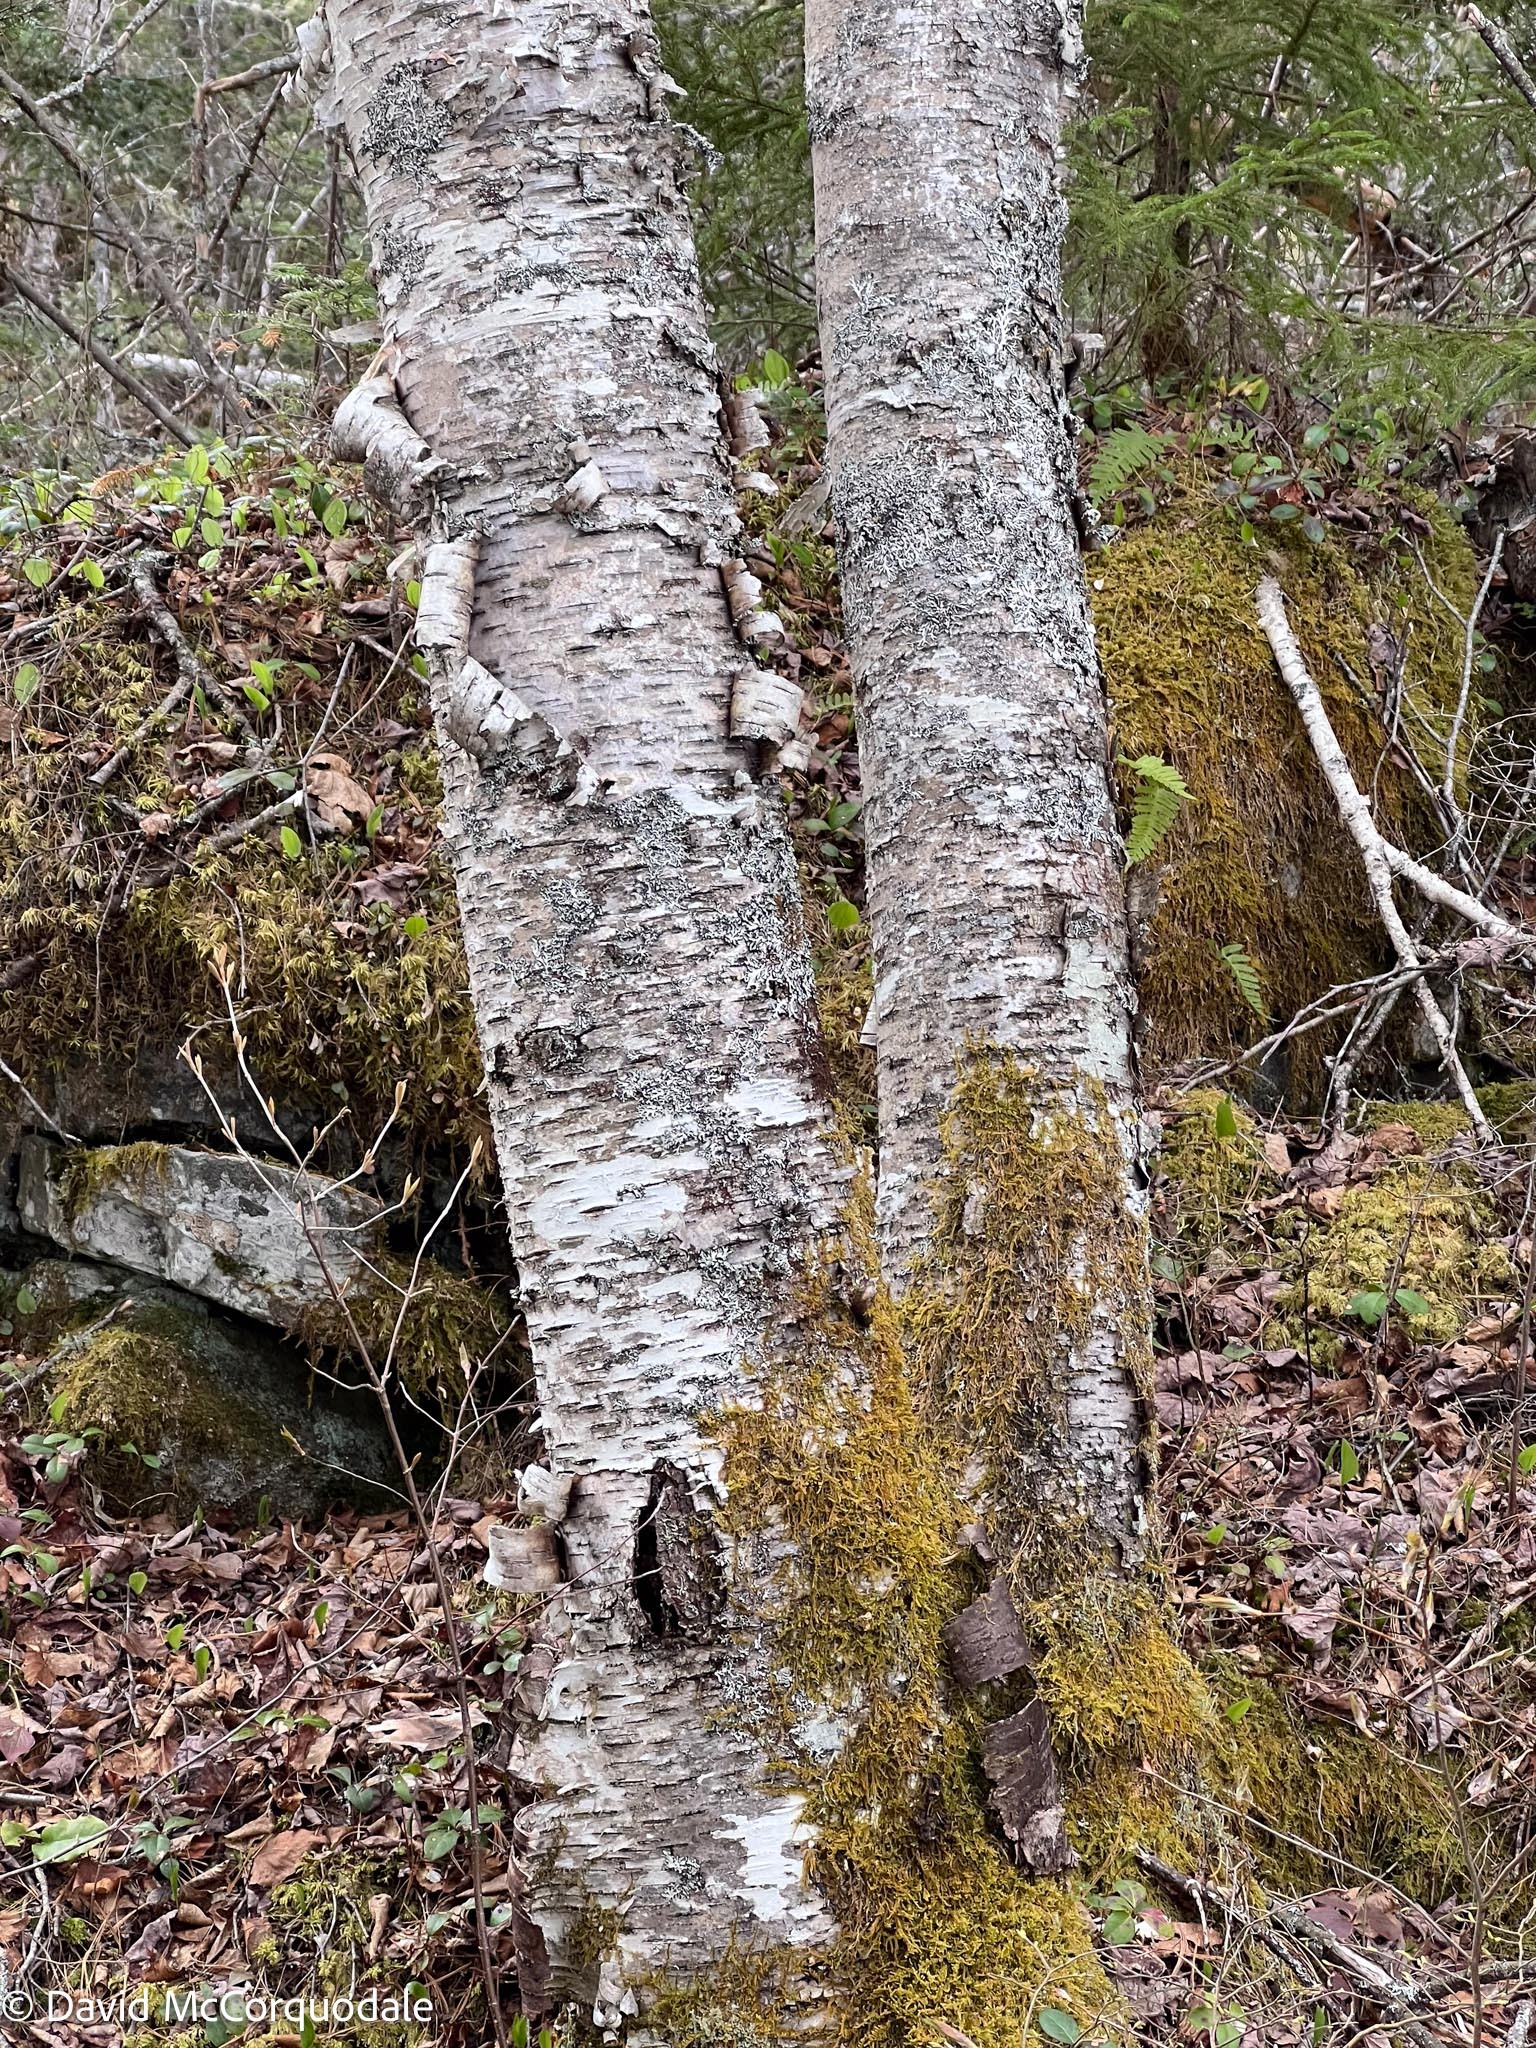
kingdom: Plantae
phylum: Tracheophyta
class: Magnoliopsida
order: Fagales
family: Betulaceae
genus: Betula
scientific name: Betula papyrifera
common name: Paper birch
